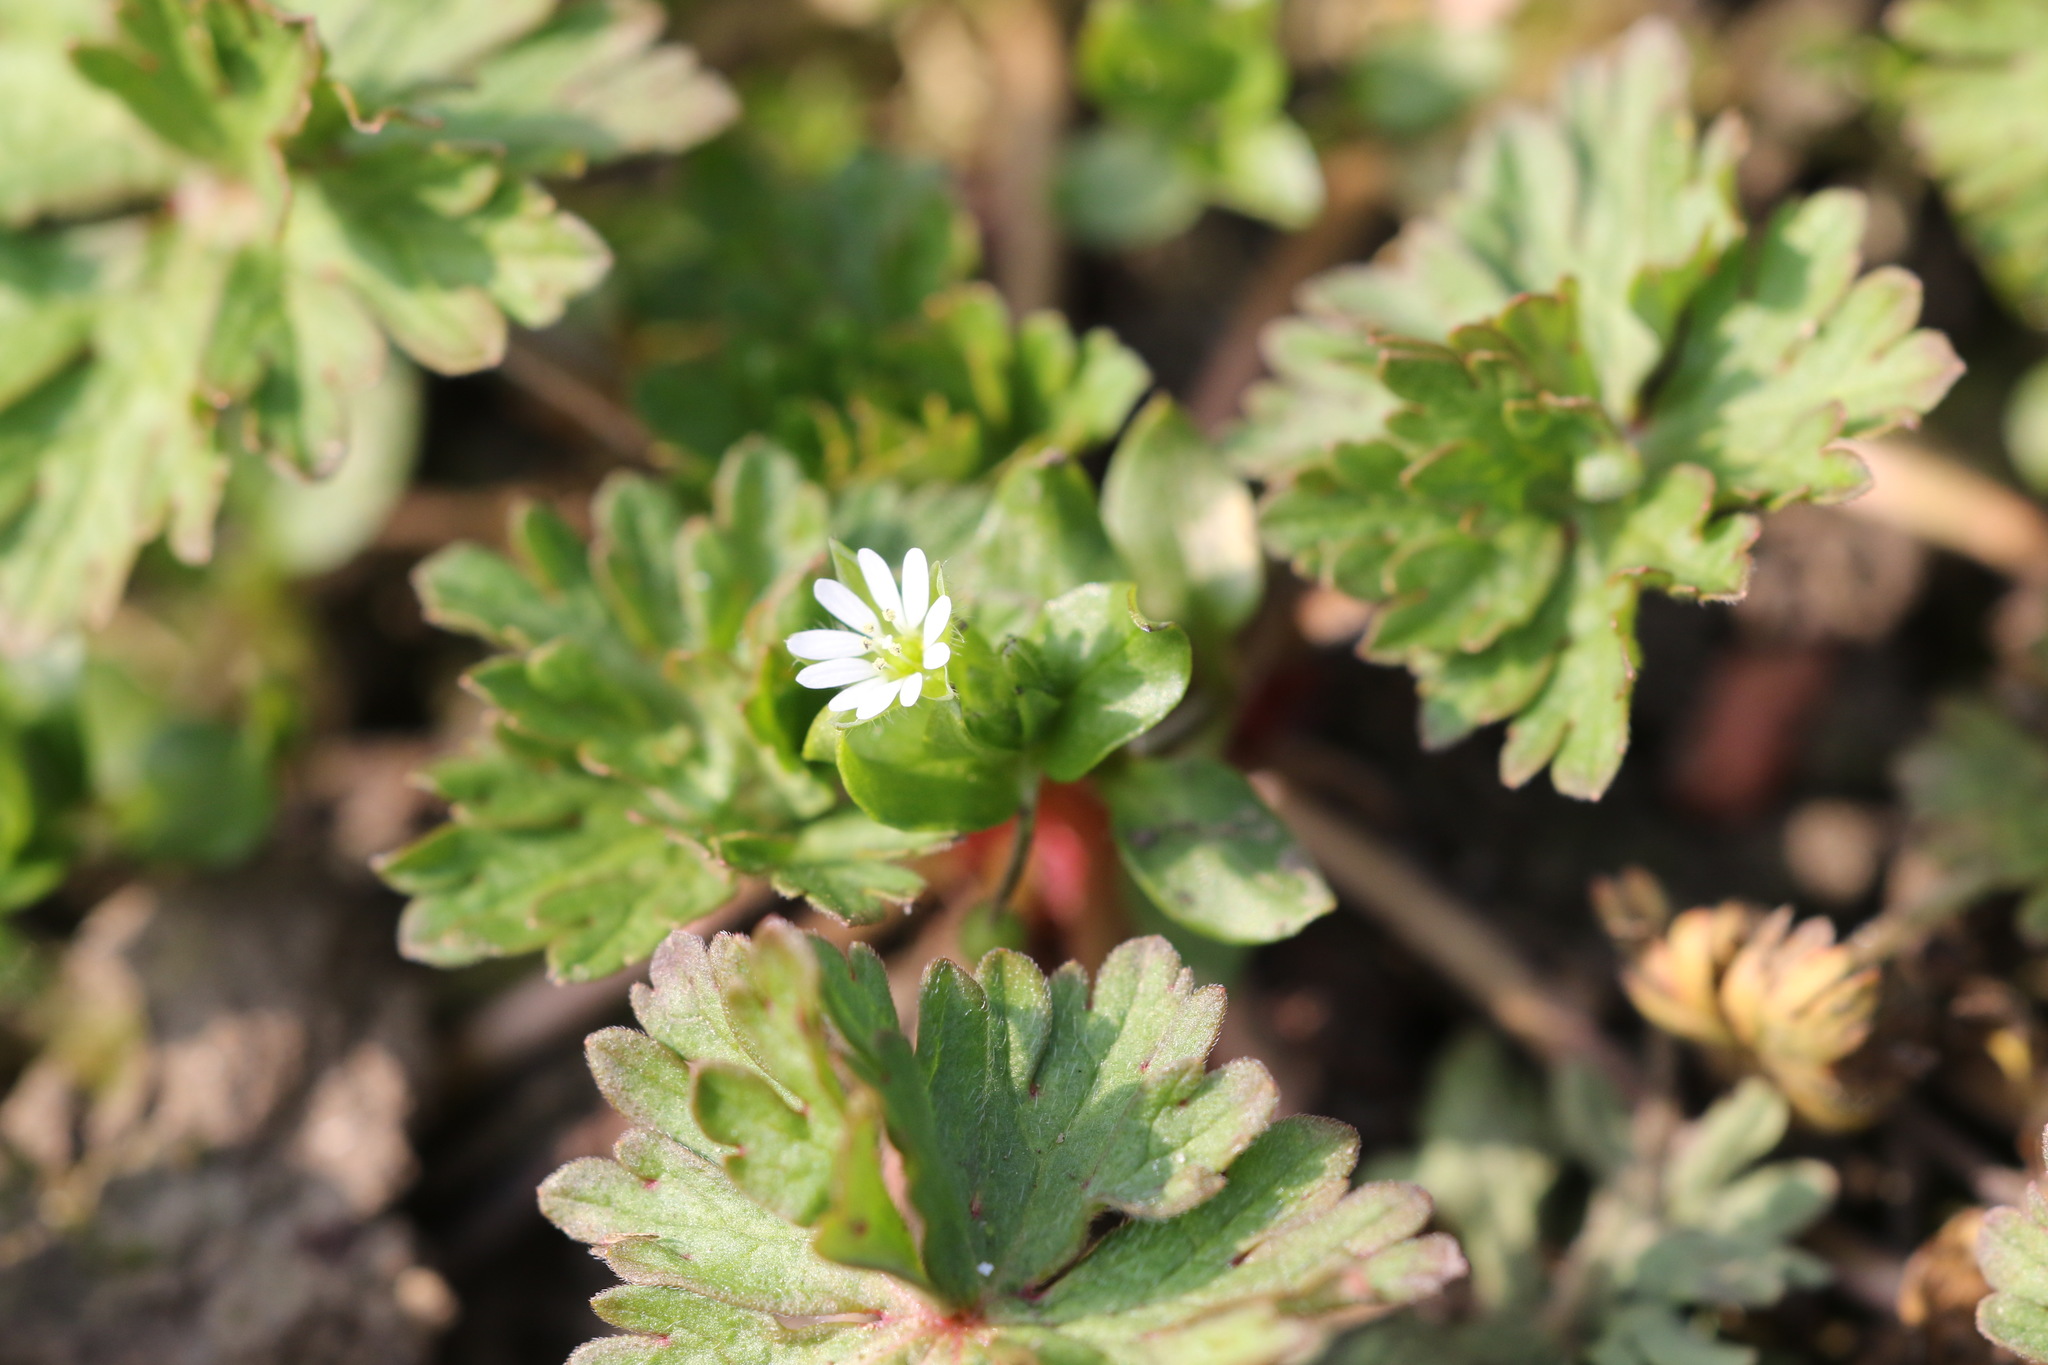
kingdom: Plantae
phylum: Tracheophyta
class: Magnoliopsida
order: Caryophyllales
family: Caryophyllaceae
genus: Stellaria
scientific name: Stellaria media
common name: Common chickweed
